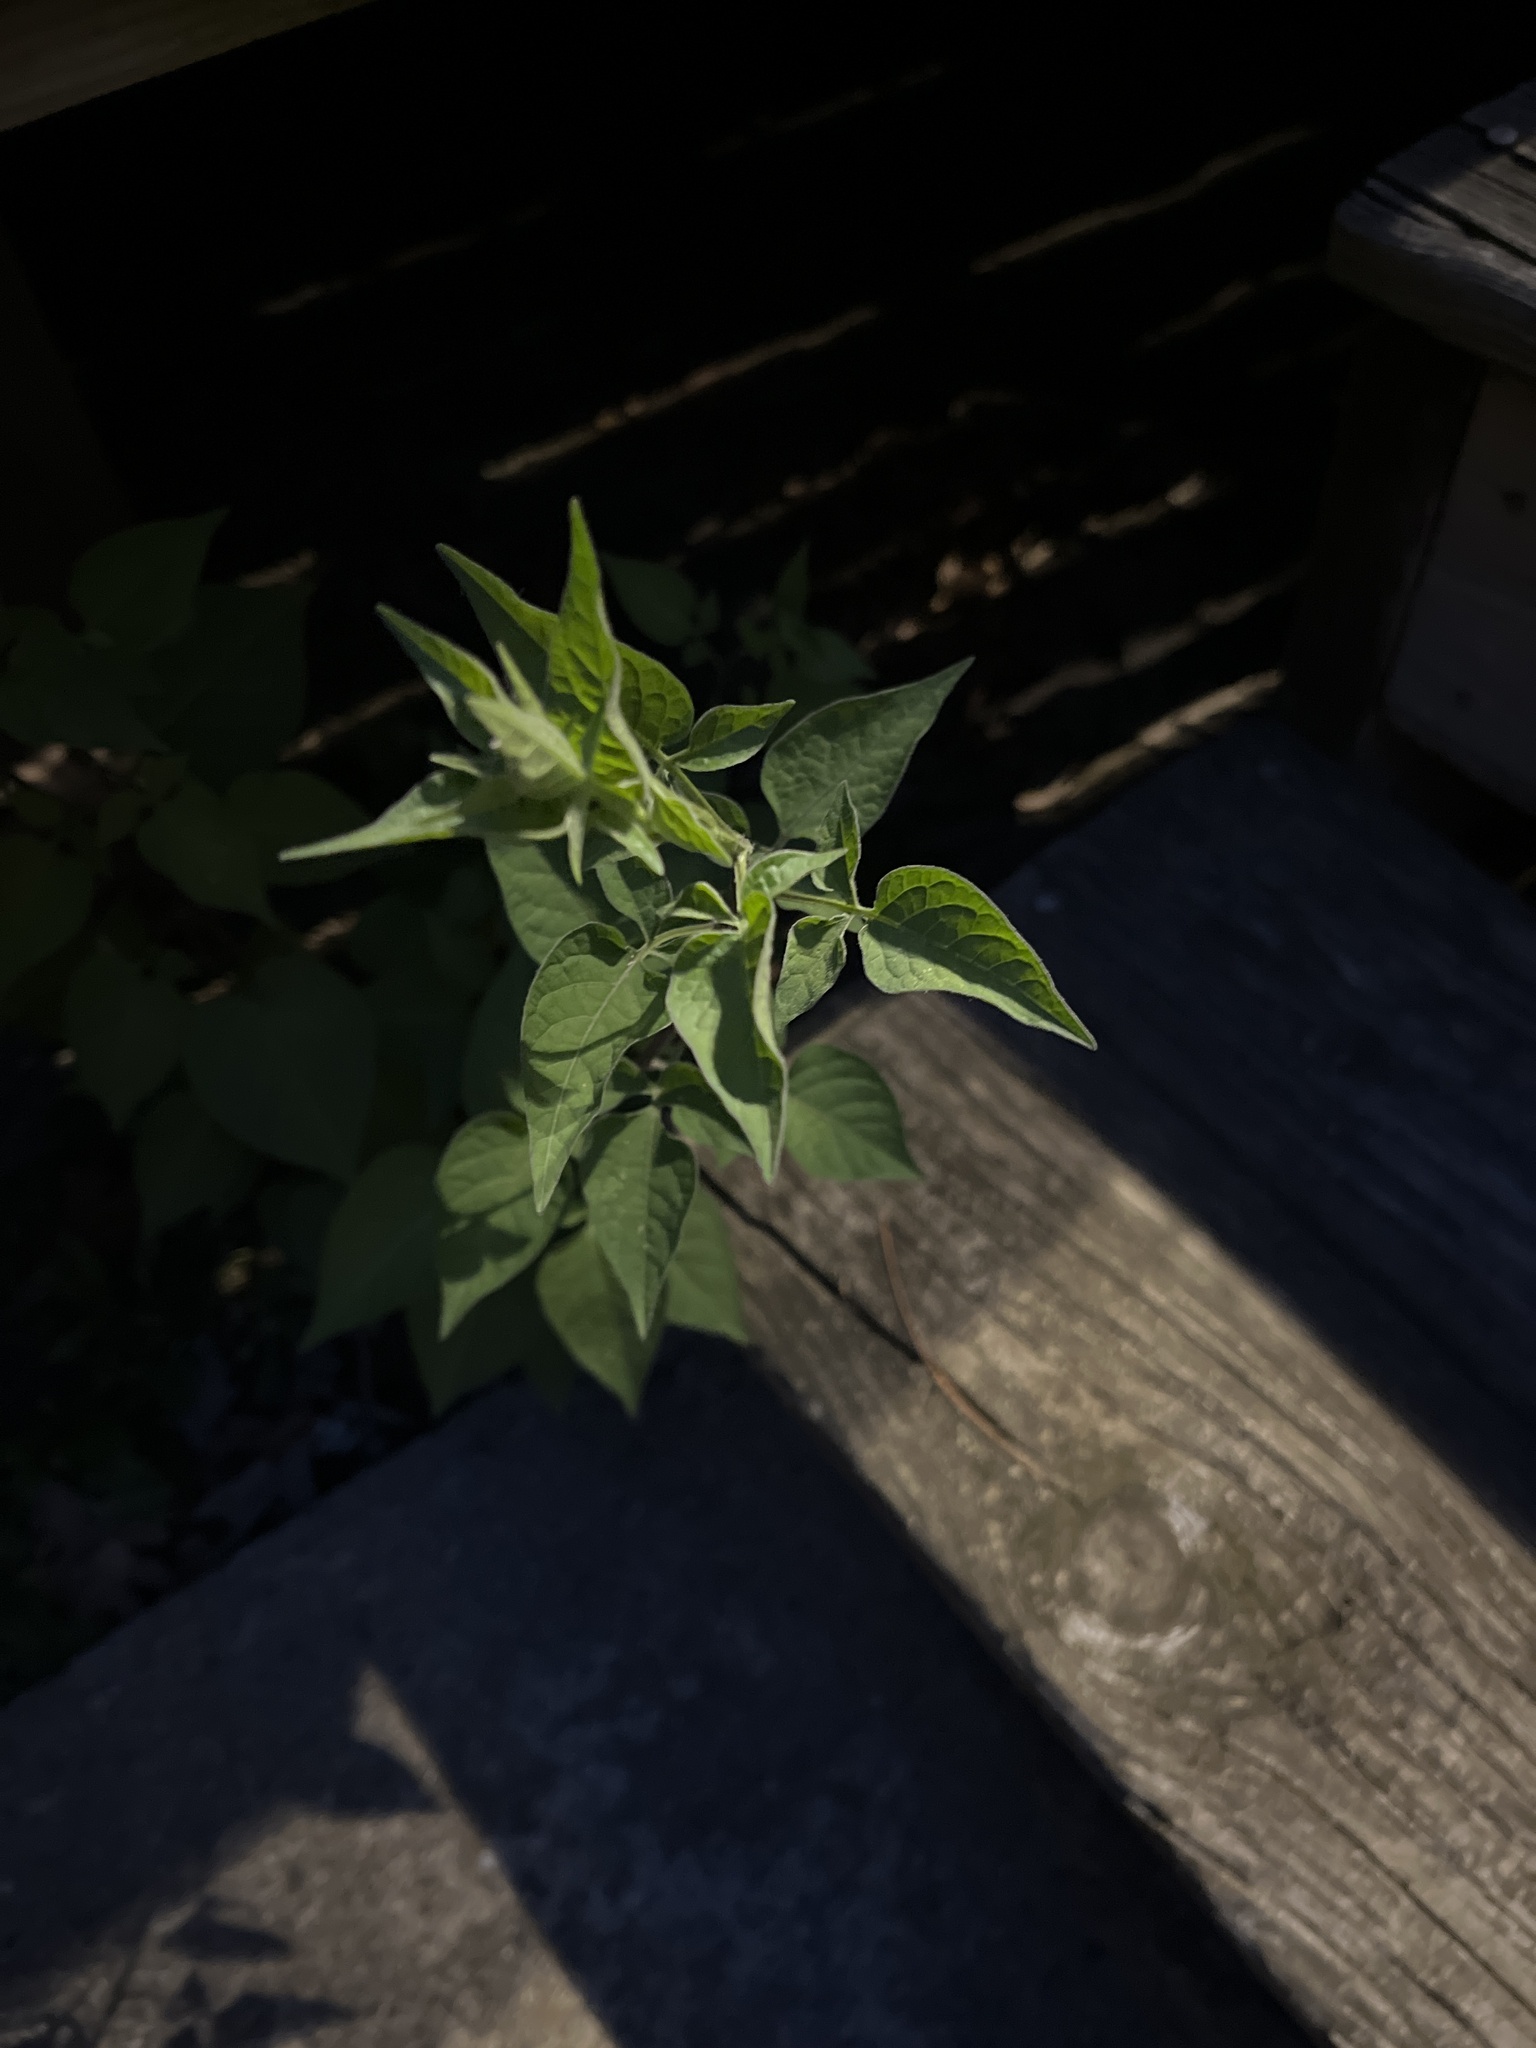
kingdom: Plantae
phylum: Tracheophyta
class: Magnoliopsida
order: Solanales
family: Solanaceae
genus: Solanum
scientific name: Solanum dulcamara
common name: Climbing nightshade
